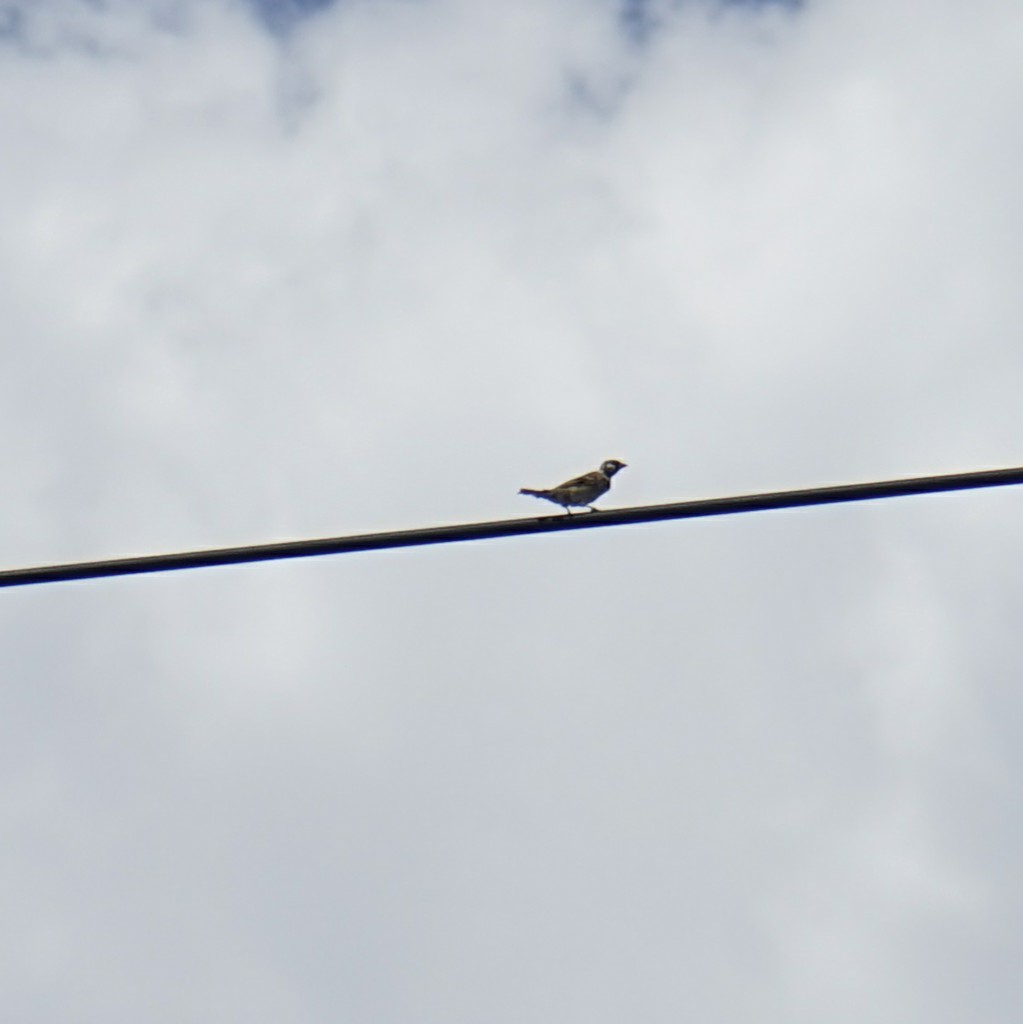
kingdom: Animalia
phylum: Chordata
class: Aves
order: Passeriformes
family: Passeridae
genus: Passer
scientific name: Passer montanus
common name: Eurasian tree sparrow
